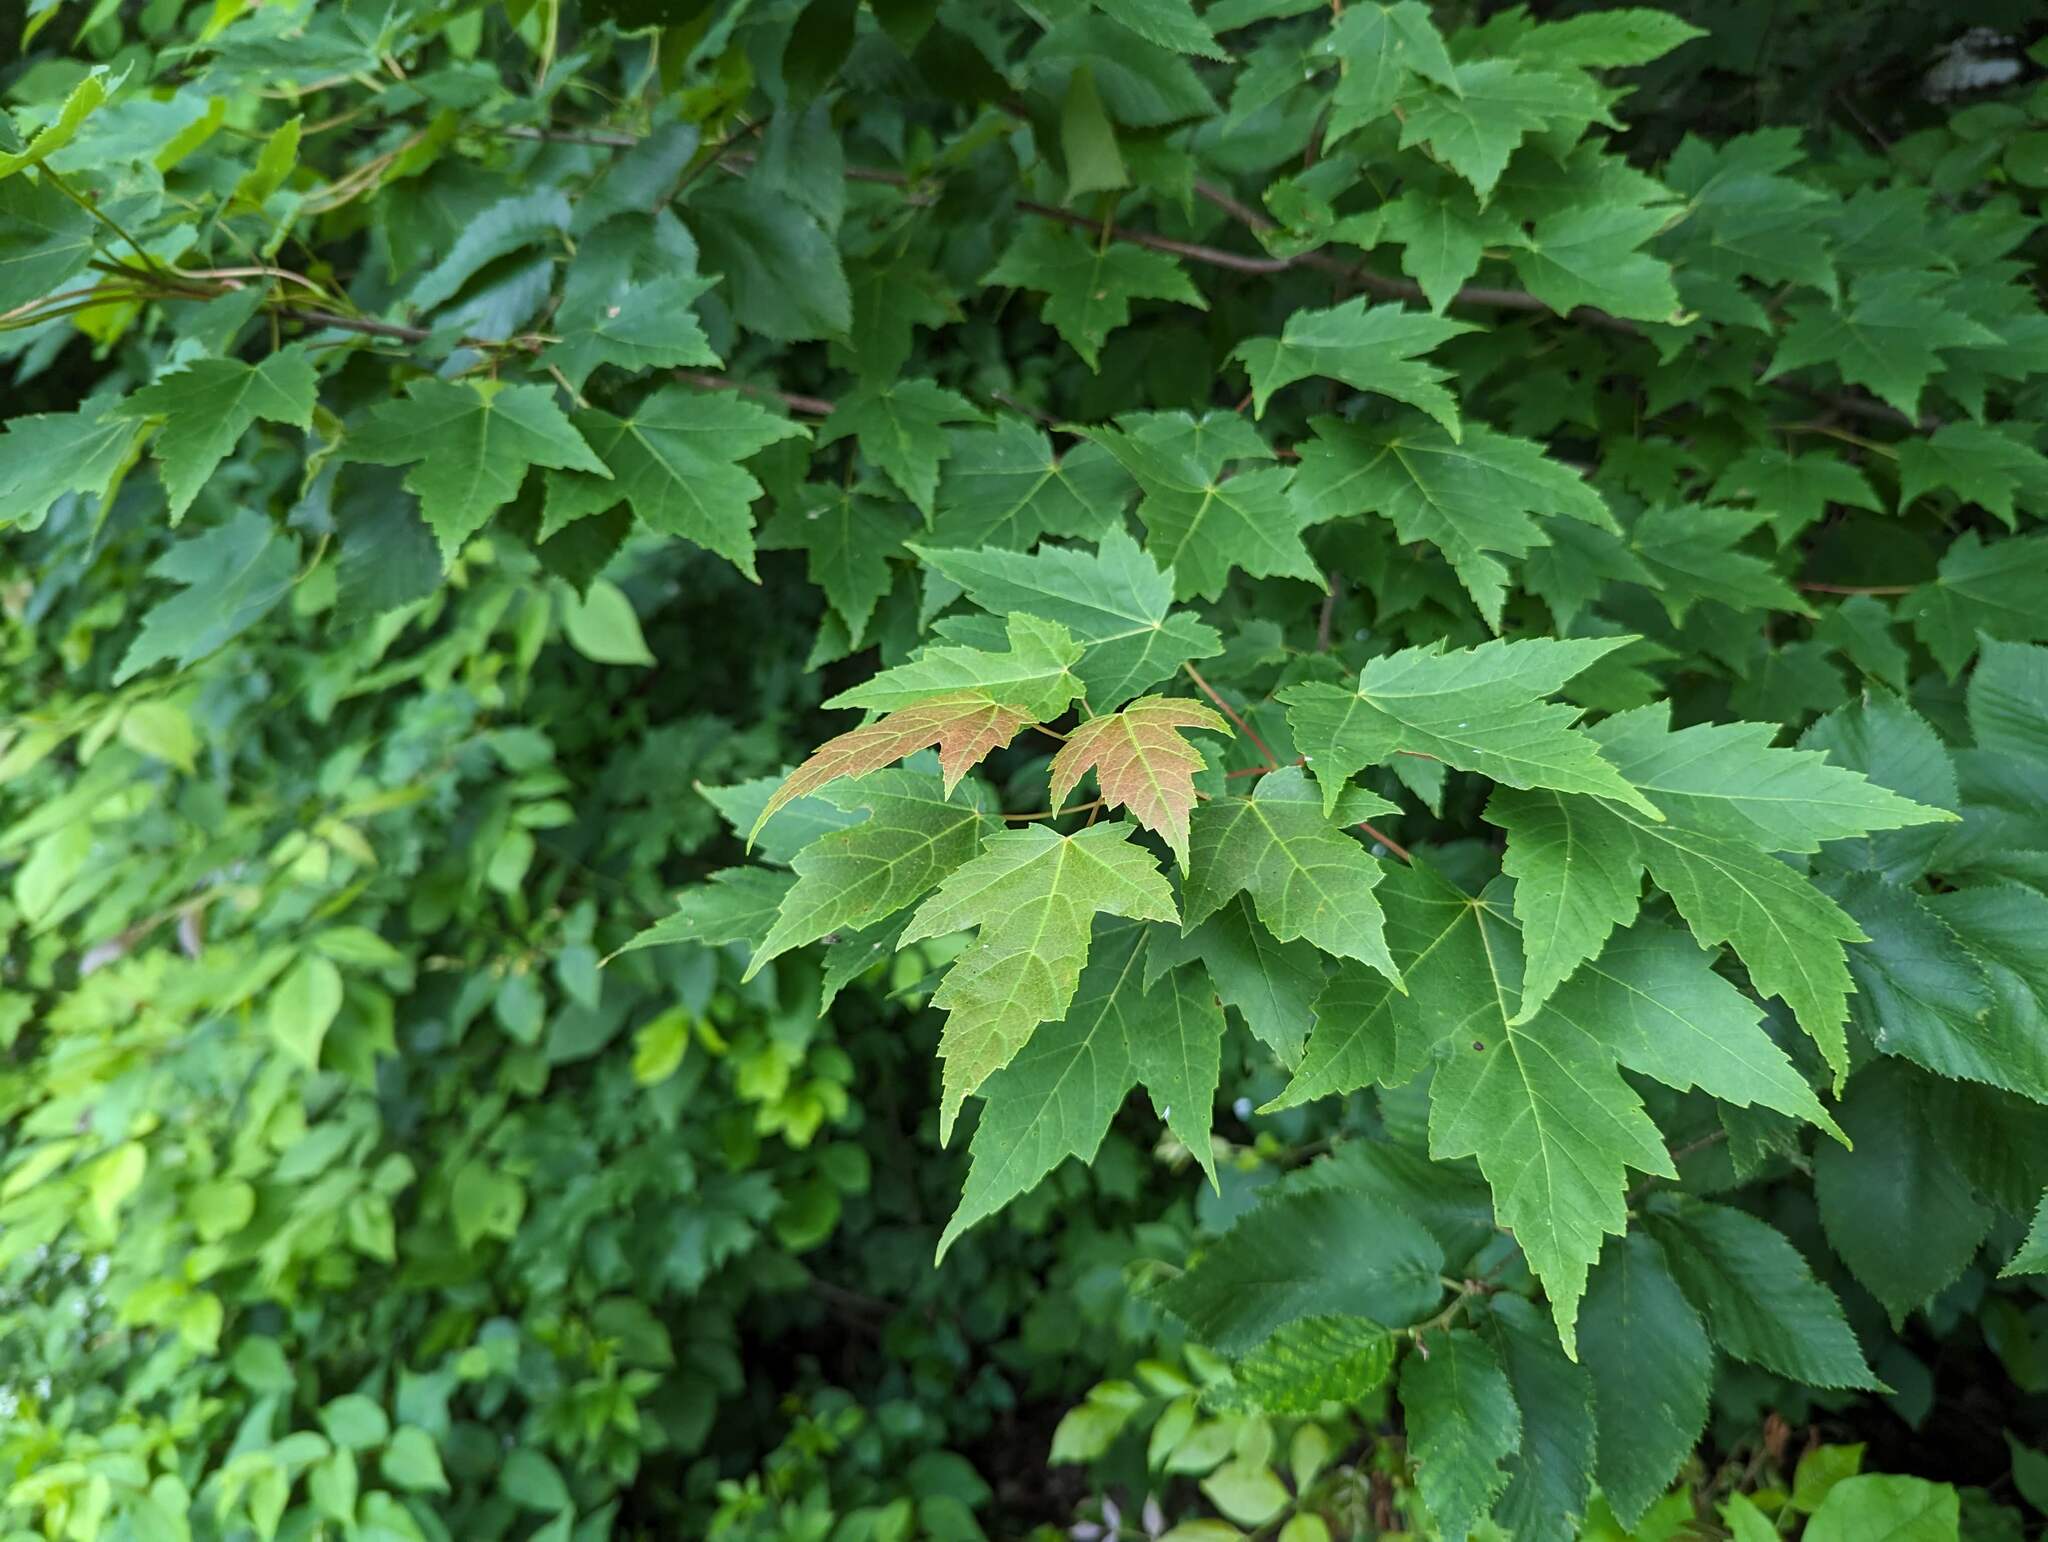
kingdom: Plantae
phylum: Tracheophyta
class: Magnoliopsida
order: Sapindales
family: Sapindaceae
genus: Acer
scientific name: Acer rubrum
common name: Red maple
